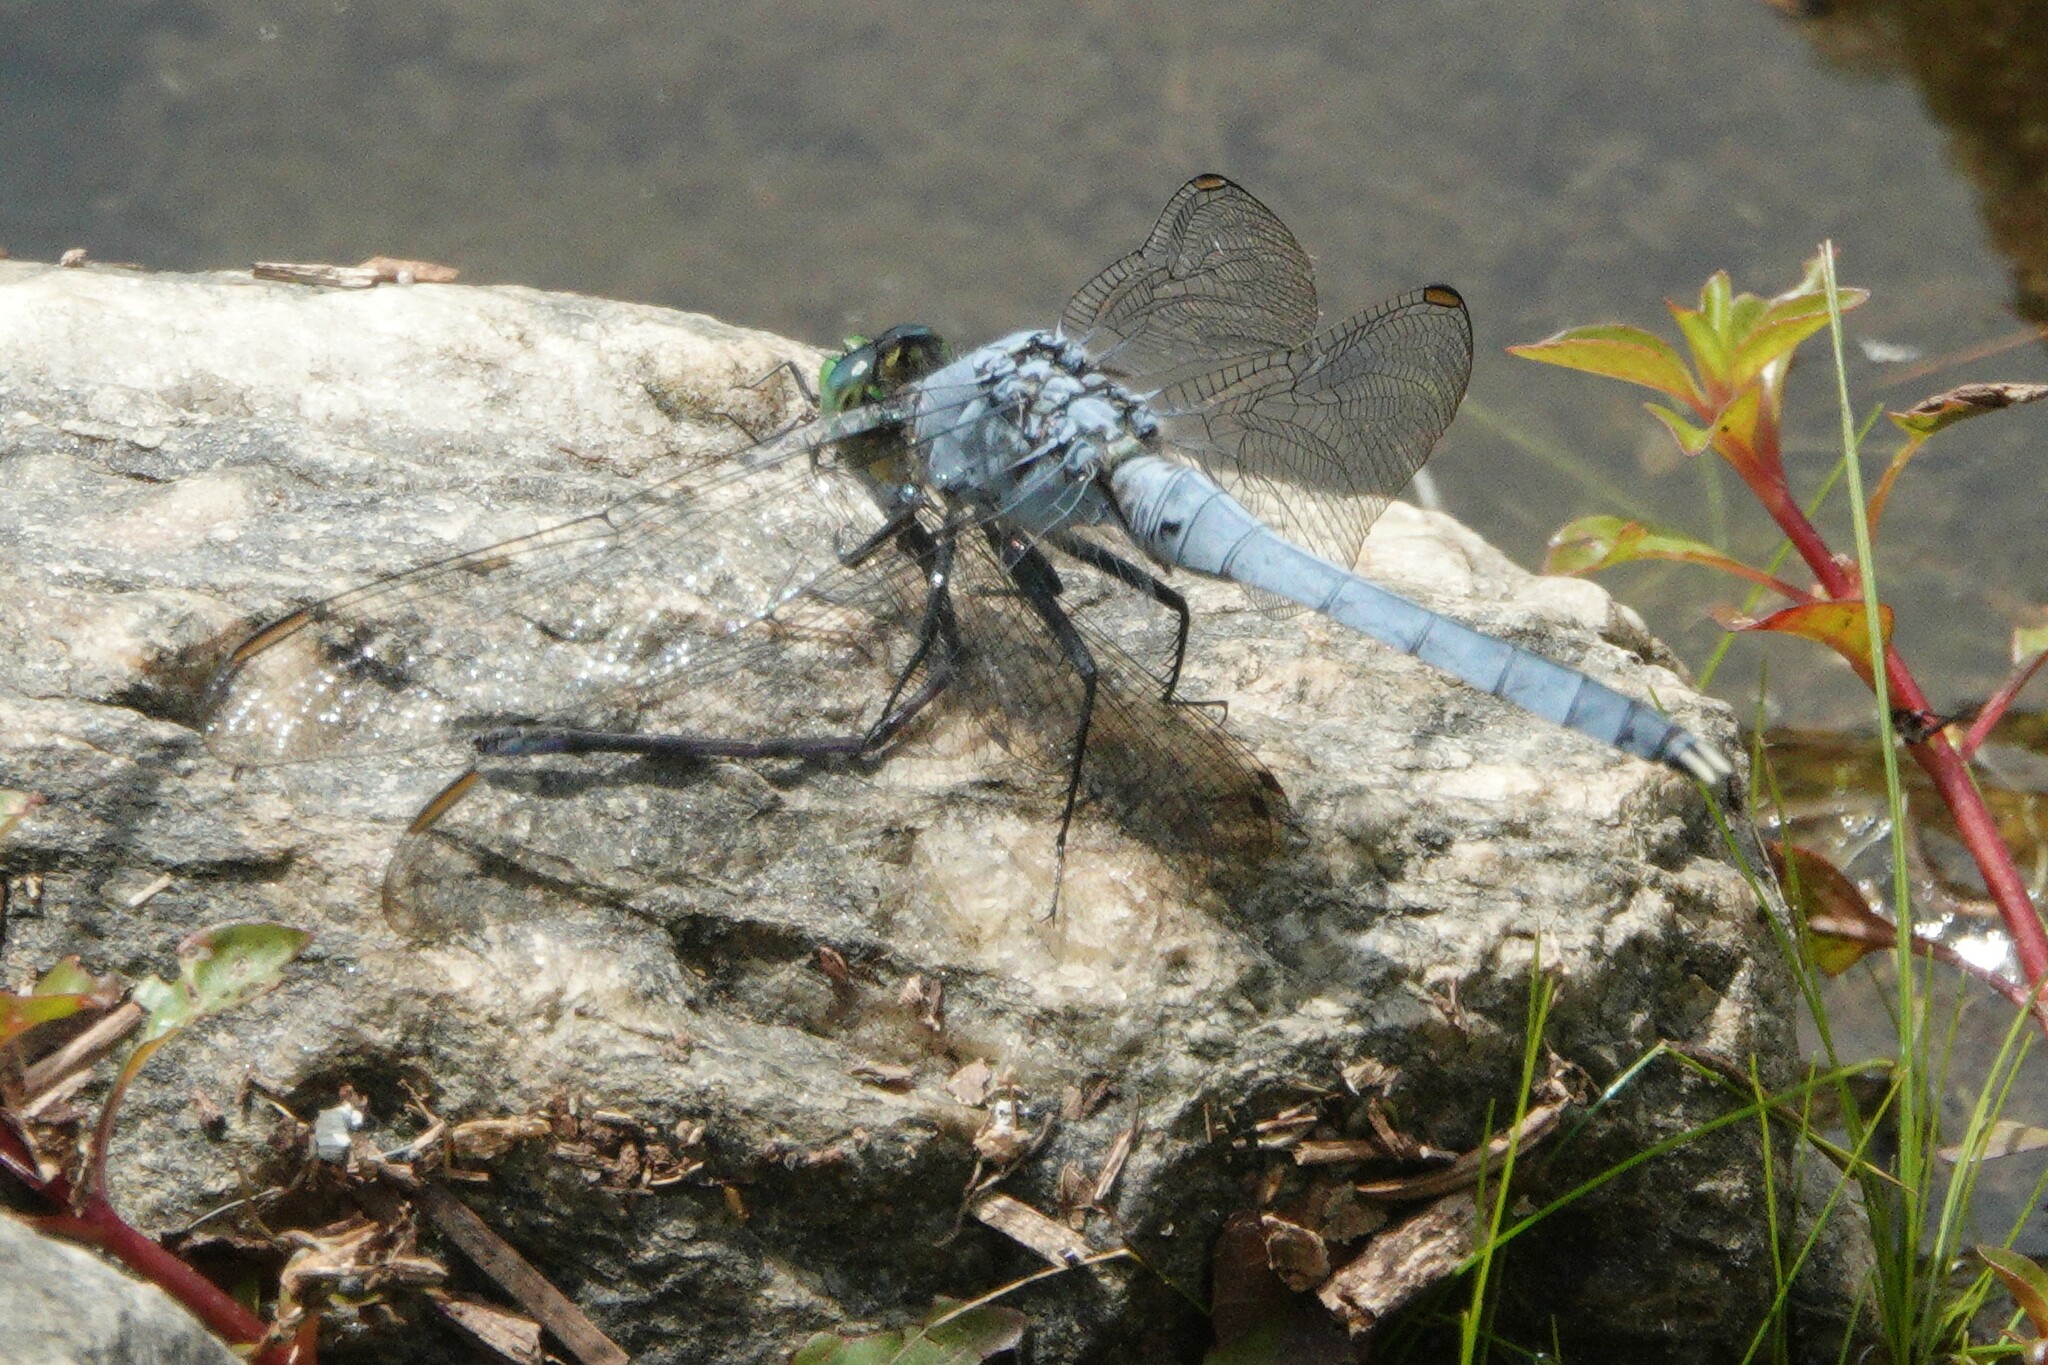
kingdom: Animalia
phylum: Arthropoda
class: Insecta
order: Odonata
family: Libellulidae
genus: Erythemis
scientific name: Erythemis simplicicollis
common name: Eastern pondhawk
